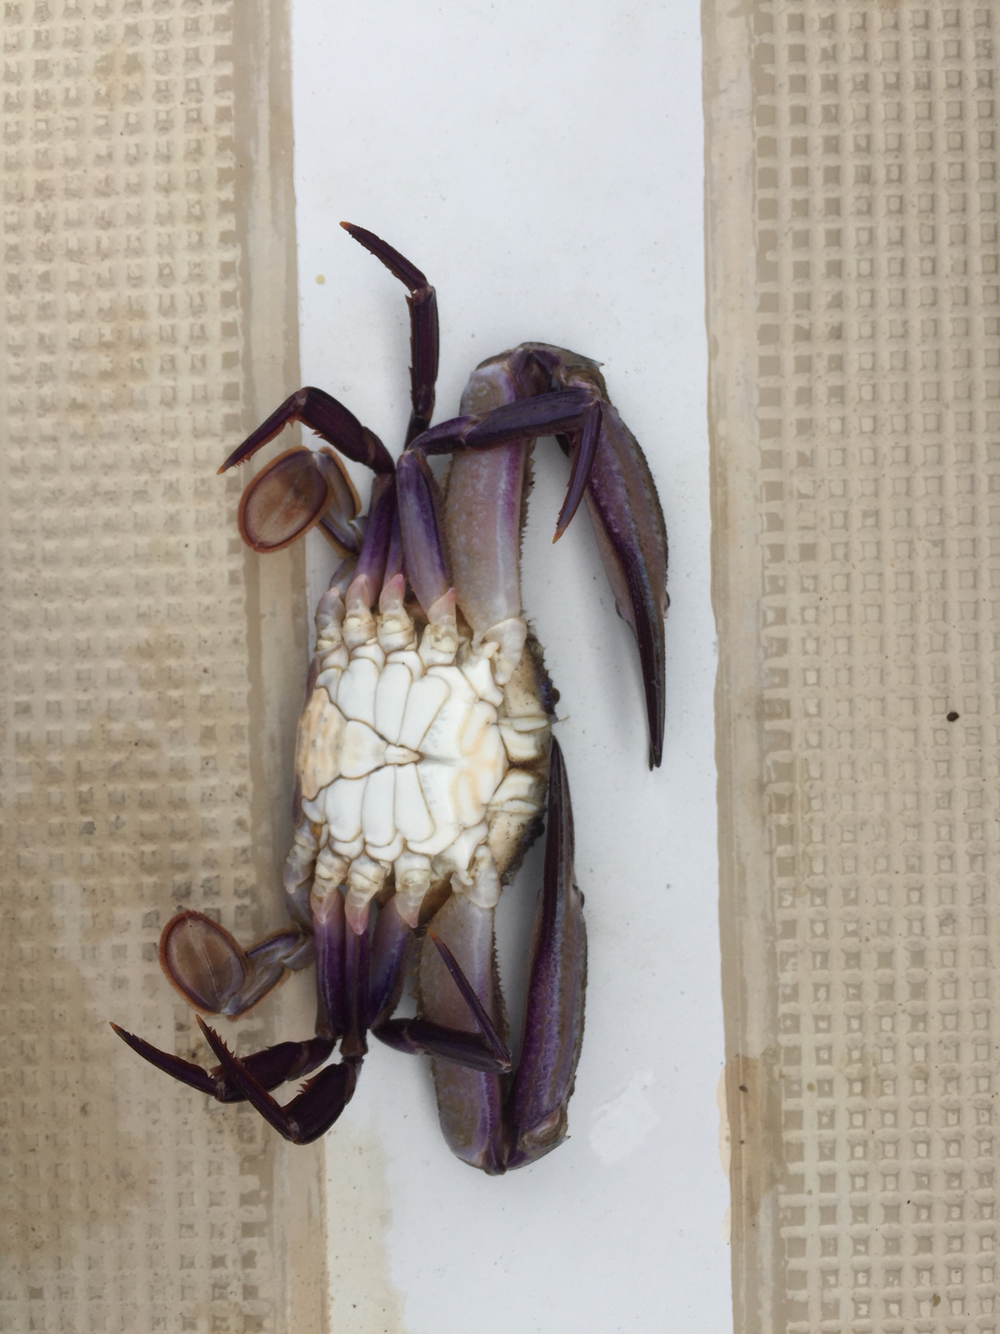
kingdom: Animalia
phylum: Arthropoda
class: Malacostraca
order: Decapoda
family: Portunidae
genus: Achelous
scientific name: Achelous xantusii
